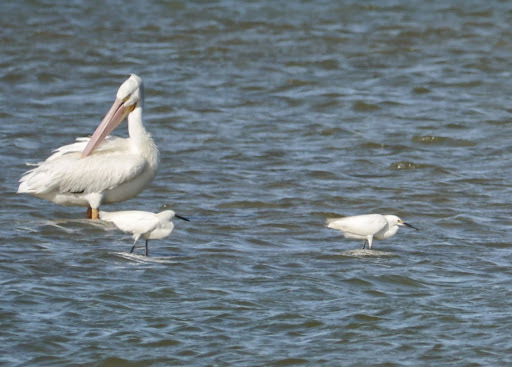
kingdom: Animalia
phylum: Chordata
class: Aves
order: Pelecaniformes
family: Ardeidae
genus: Egretta
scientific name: Egretta thula
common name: Snowy egret
